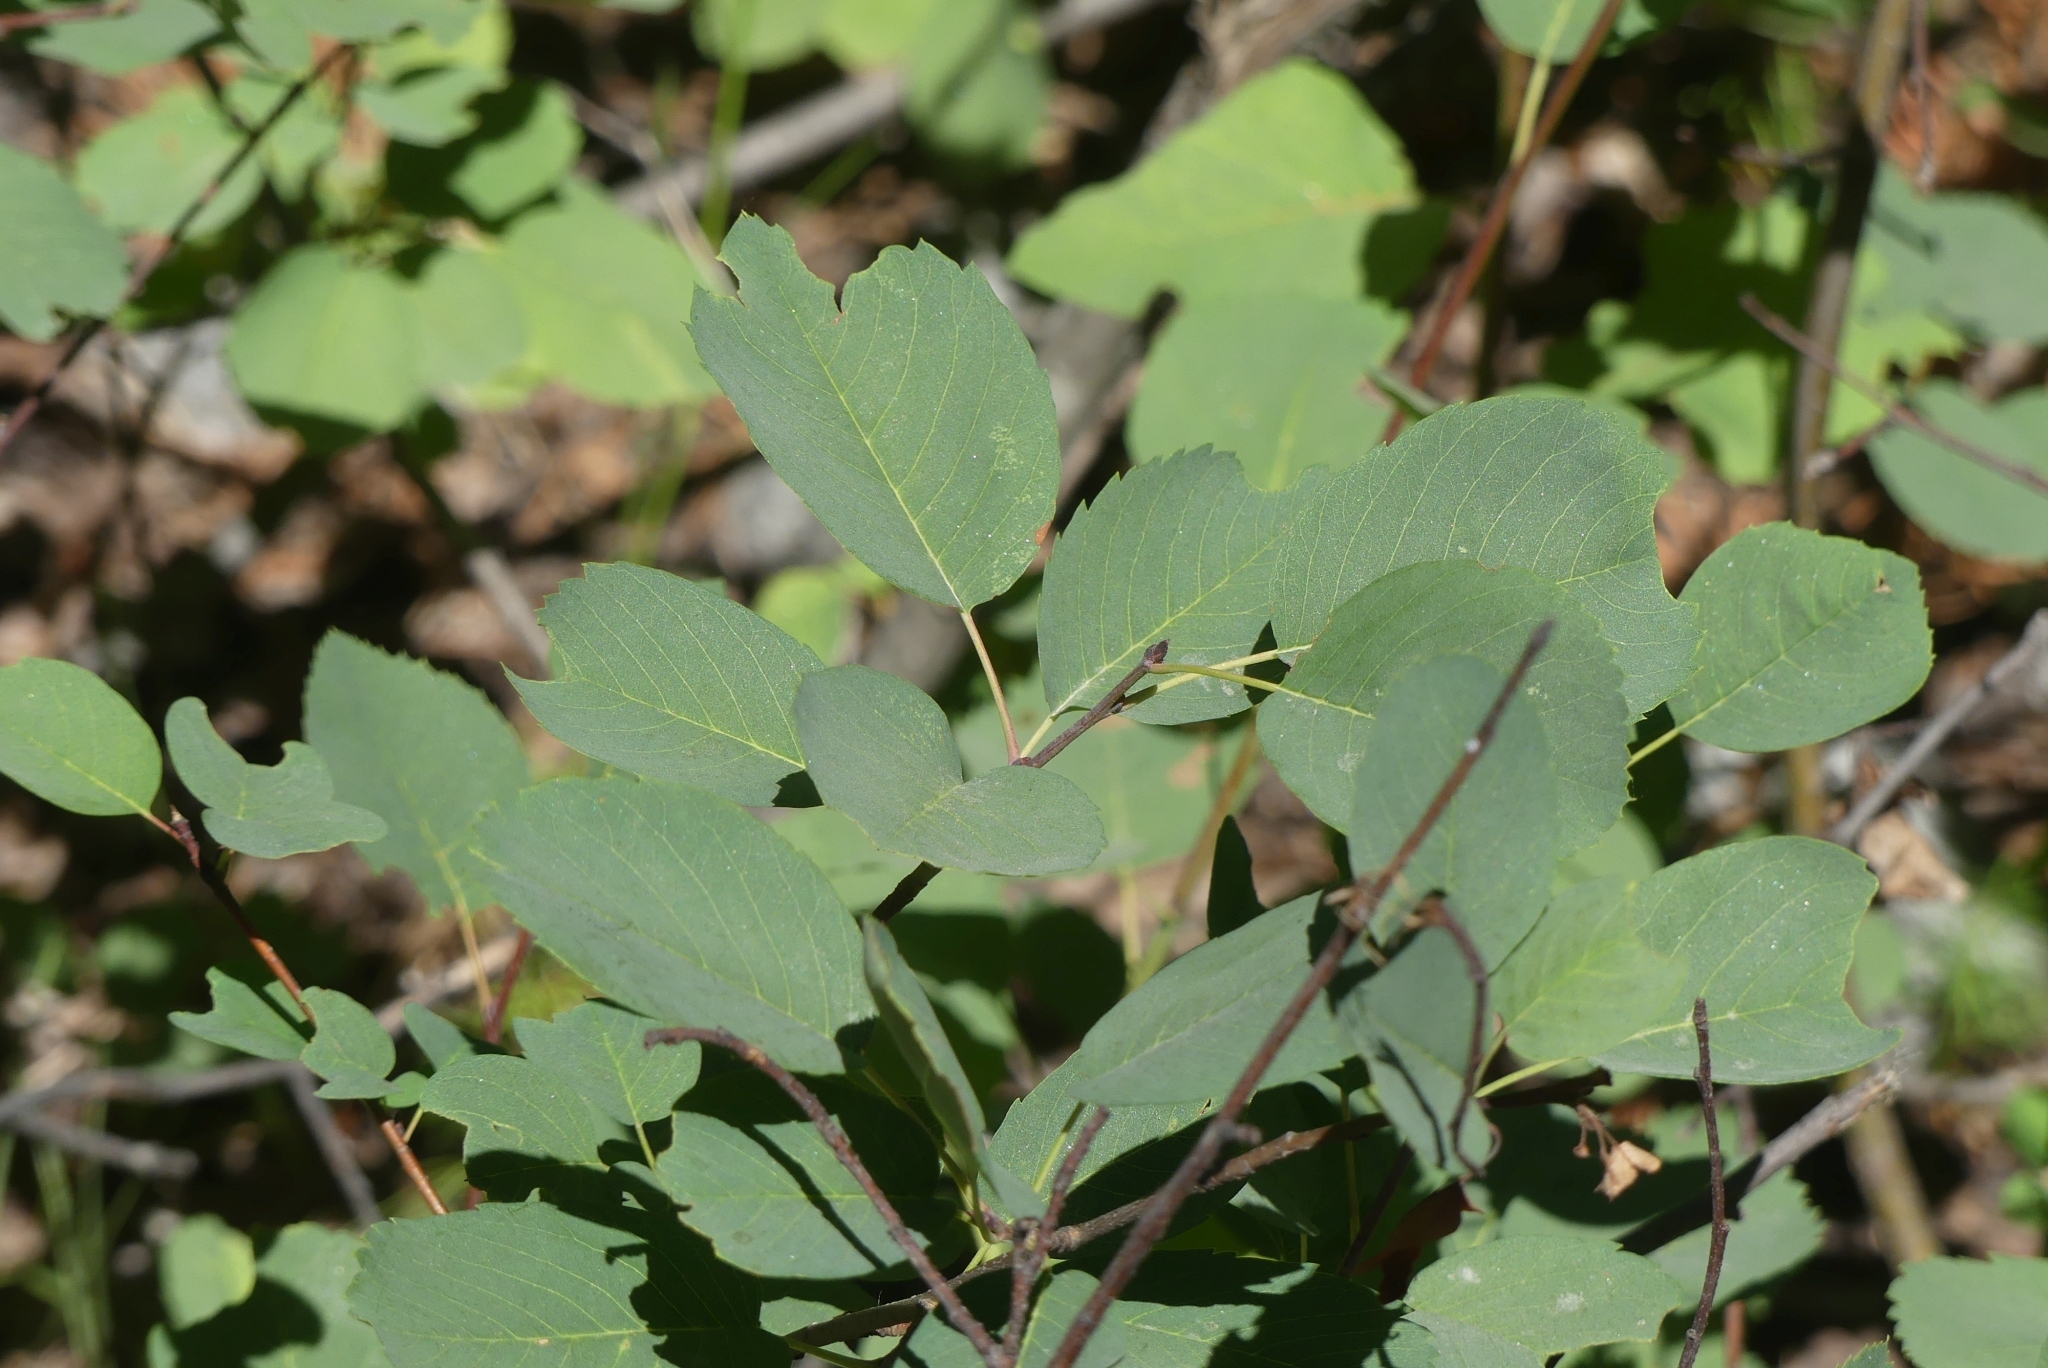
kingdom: Plantae
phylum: Tracheophyta
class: Magnoliopsida
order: Rosales
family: Rosaceae
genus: Amelanchier
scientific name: Amelanchier alnifolia
